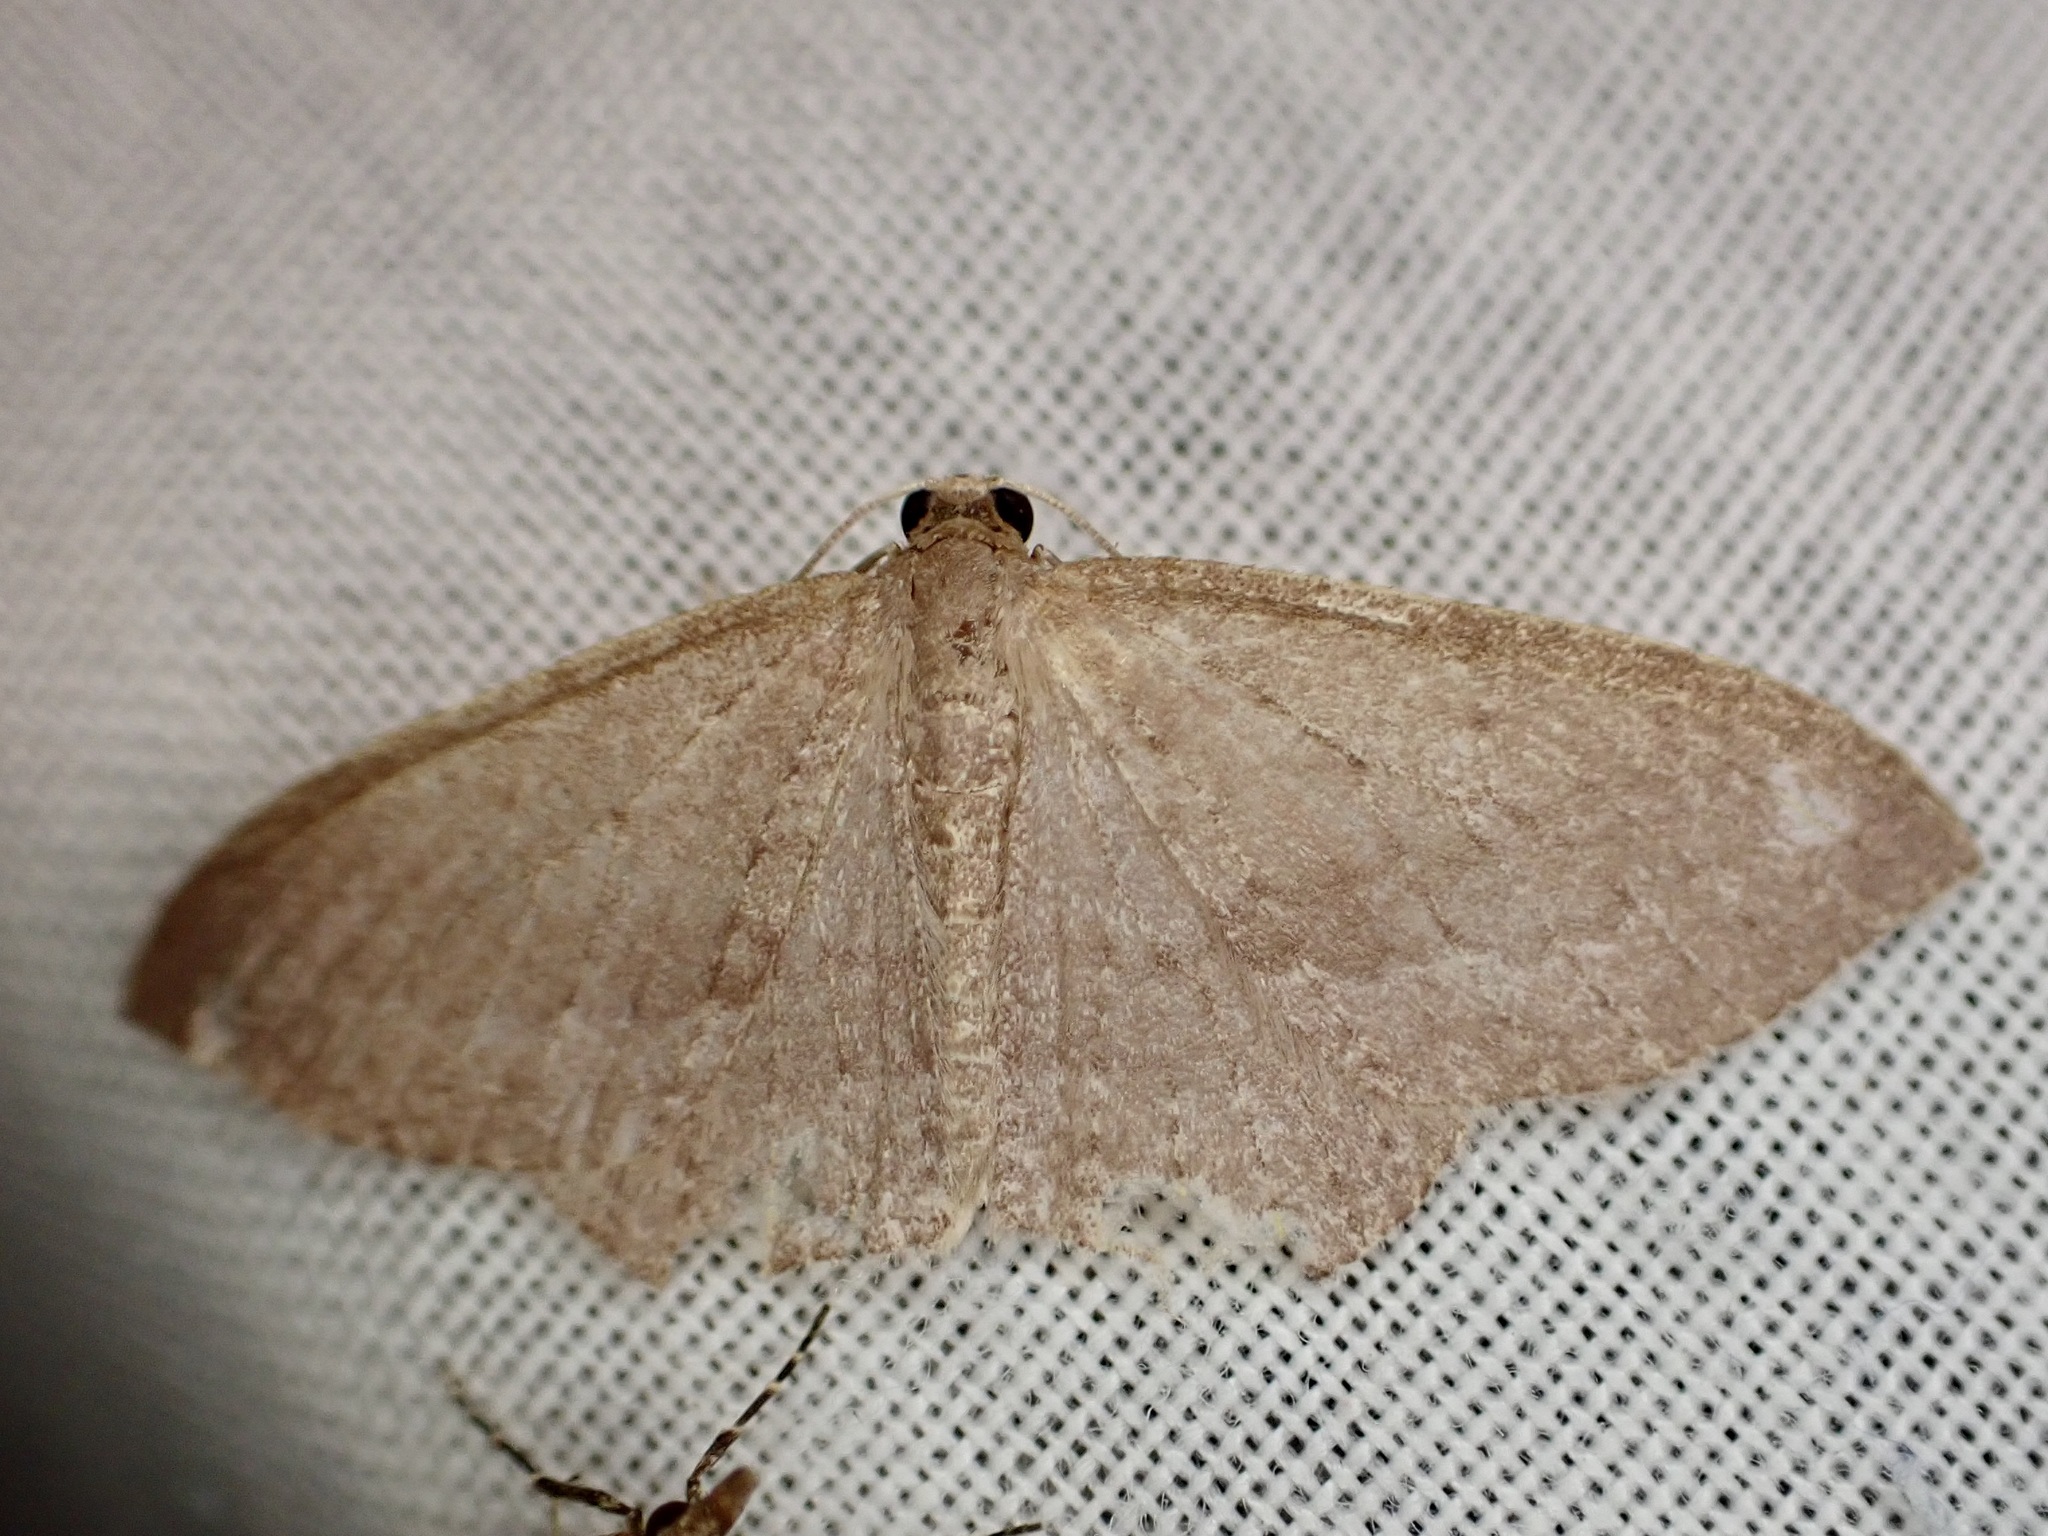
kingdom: Animalia
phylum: Arthropoda
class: Insecta
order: Lepidoptera
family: Geometridae
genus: Poecilasthena
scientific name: Poecilasthena schistaria
